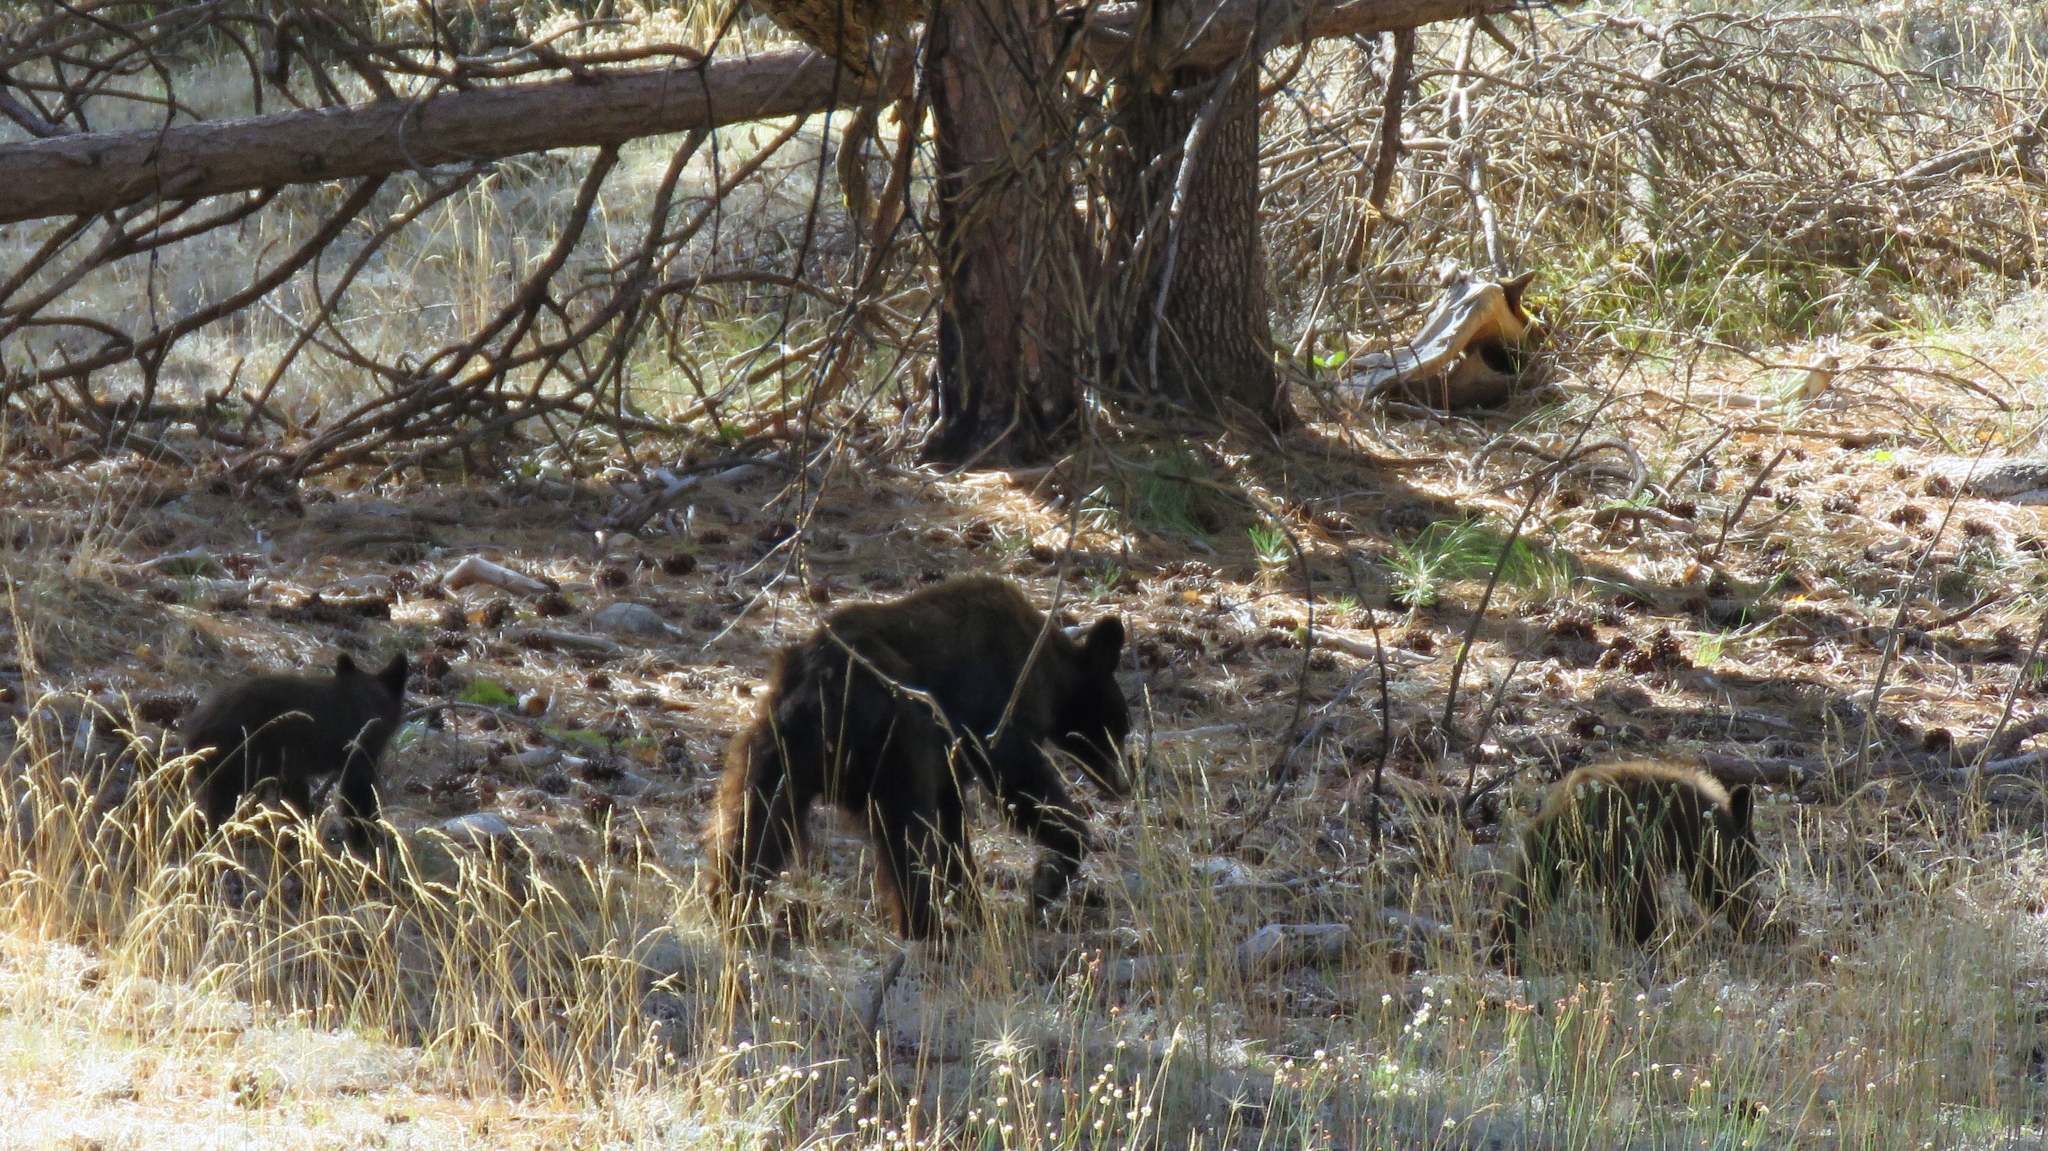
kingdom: Animalia
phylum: Chordata
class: Mammalia
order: Carnivora
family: Ursidae
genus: Ursus
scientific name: Ursus americanus
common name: American black bear
